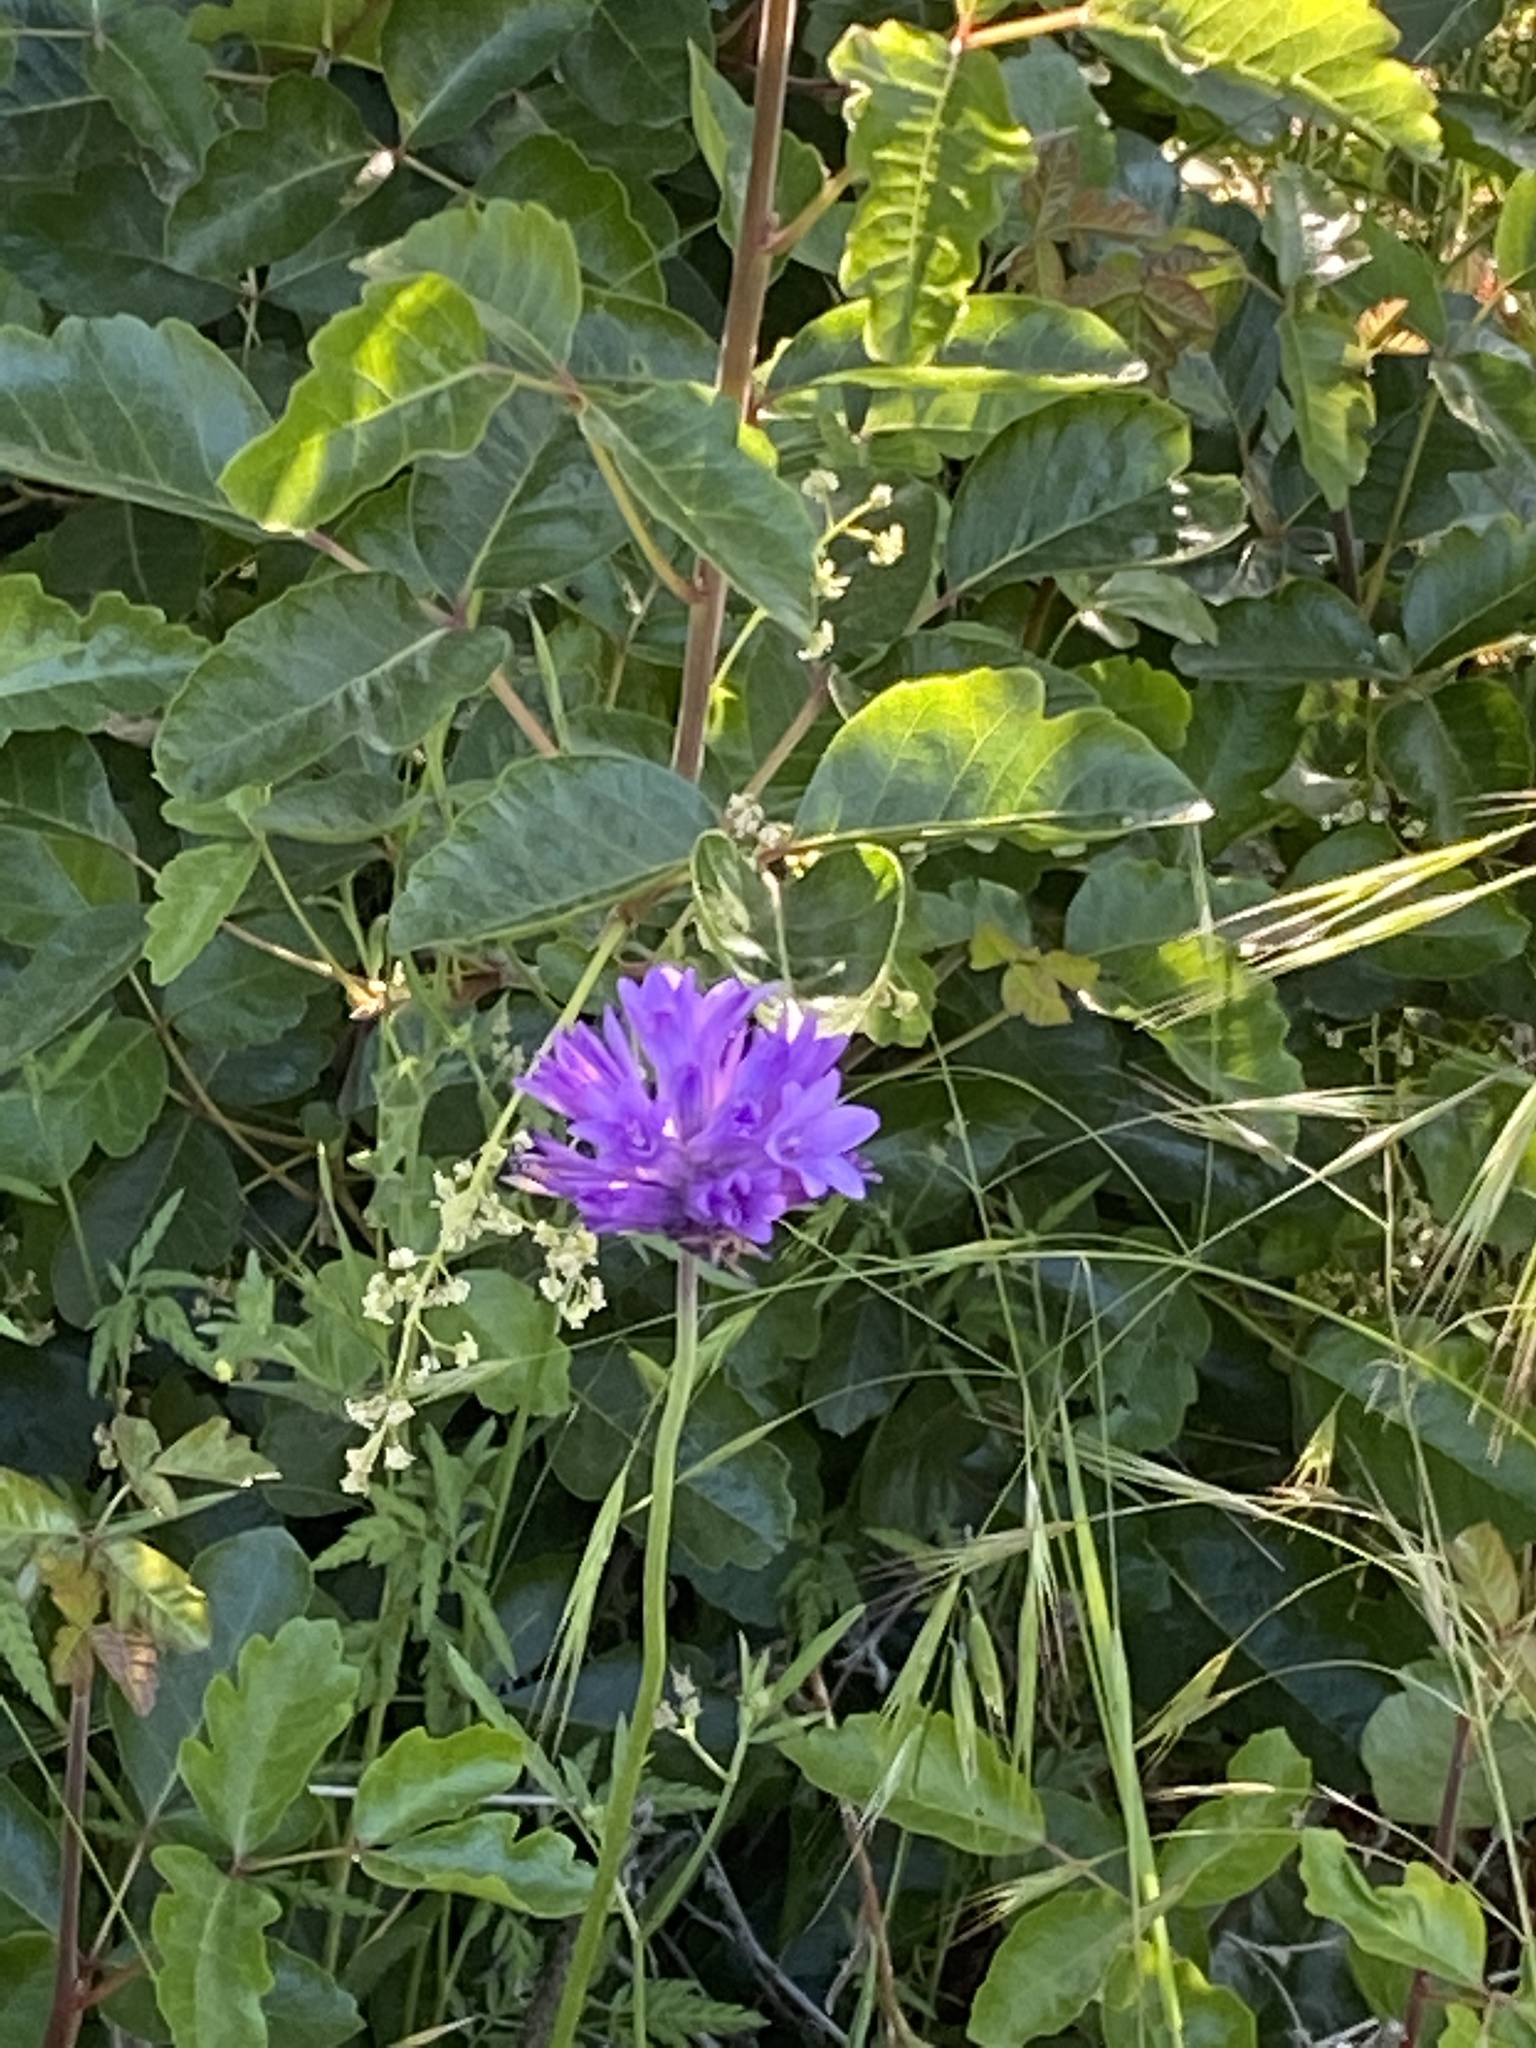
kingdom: Plantae
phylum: Tracheophyta
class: Liliopsida
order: Asparagales
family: Asparagaceae
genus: Dichelostemma
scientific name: Dichelostemma congestum
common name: Fork-tooth ookow
